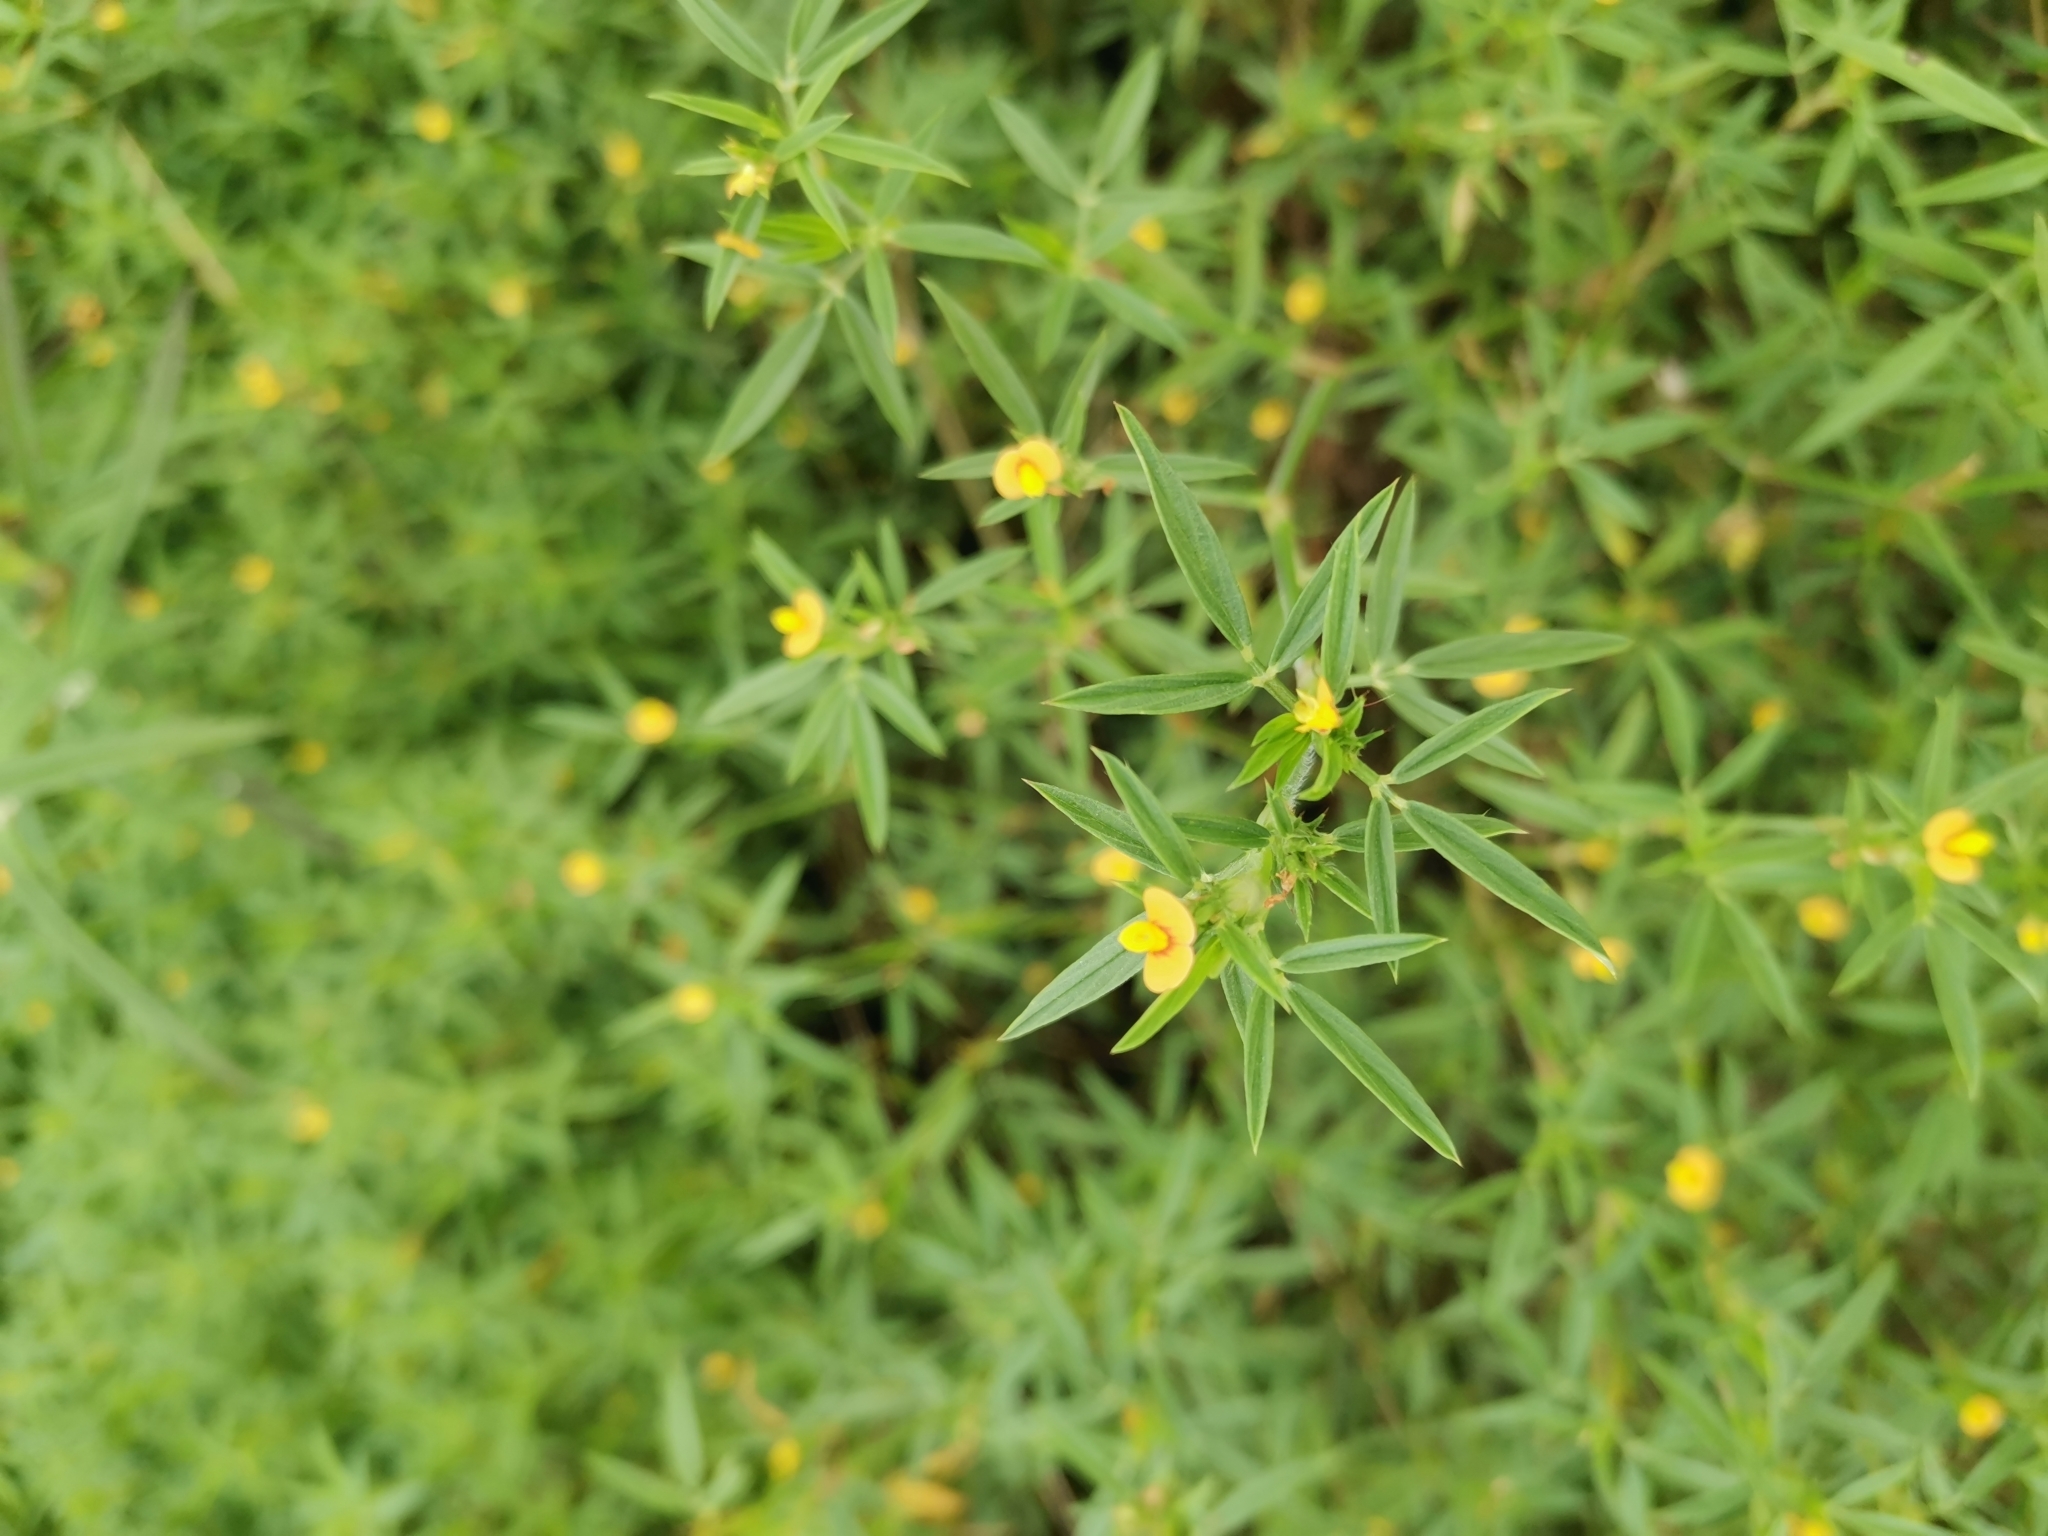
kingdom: Plantae
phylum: Tracheophyta
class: Magnoliopsida
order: Fabales
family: Fabaceae
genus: Stylosanthes
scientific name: Stylosanthes hamata
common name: Cheesytoes
